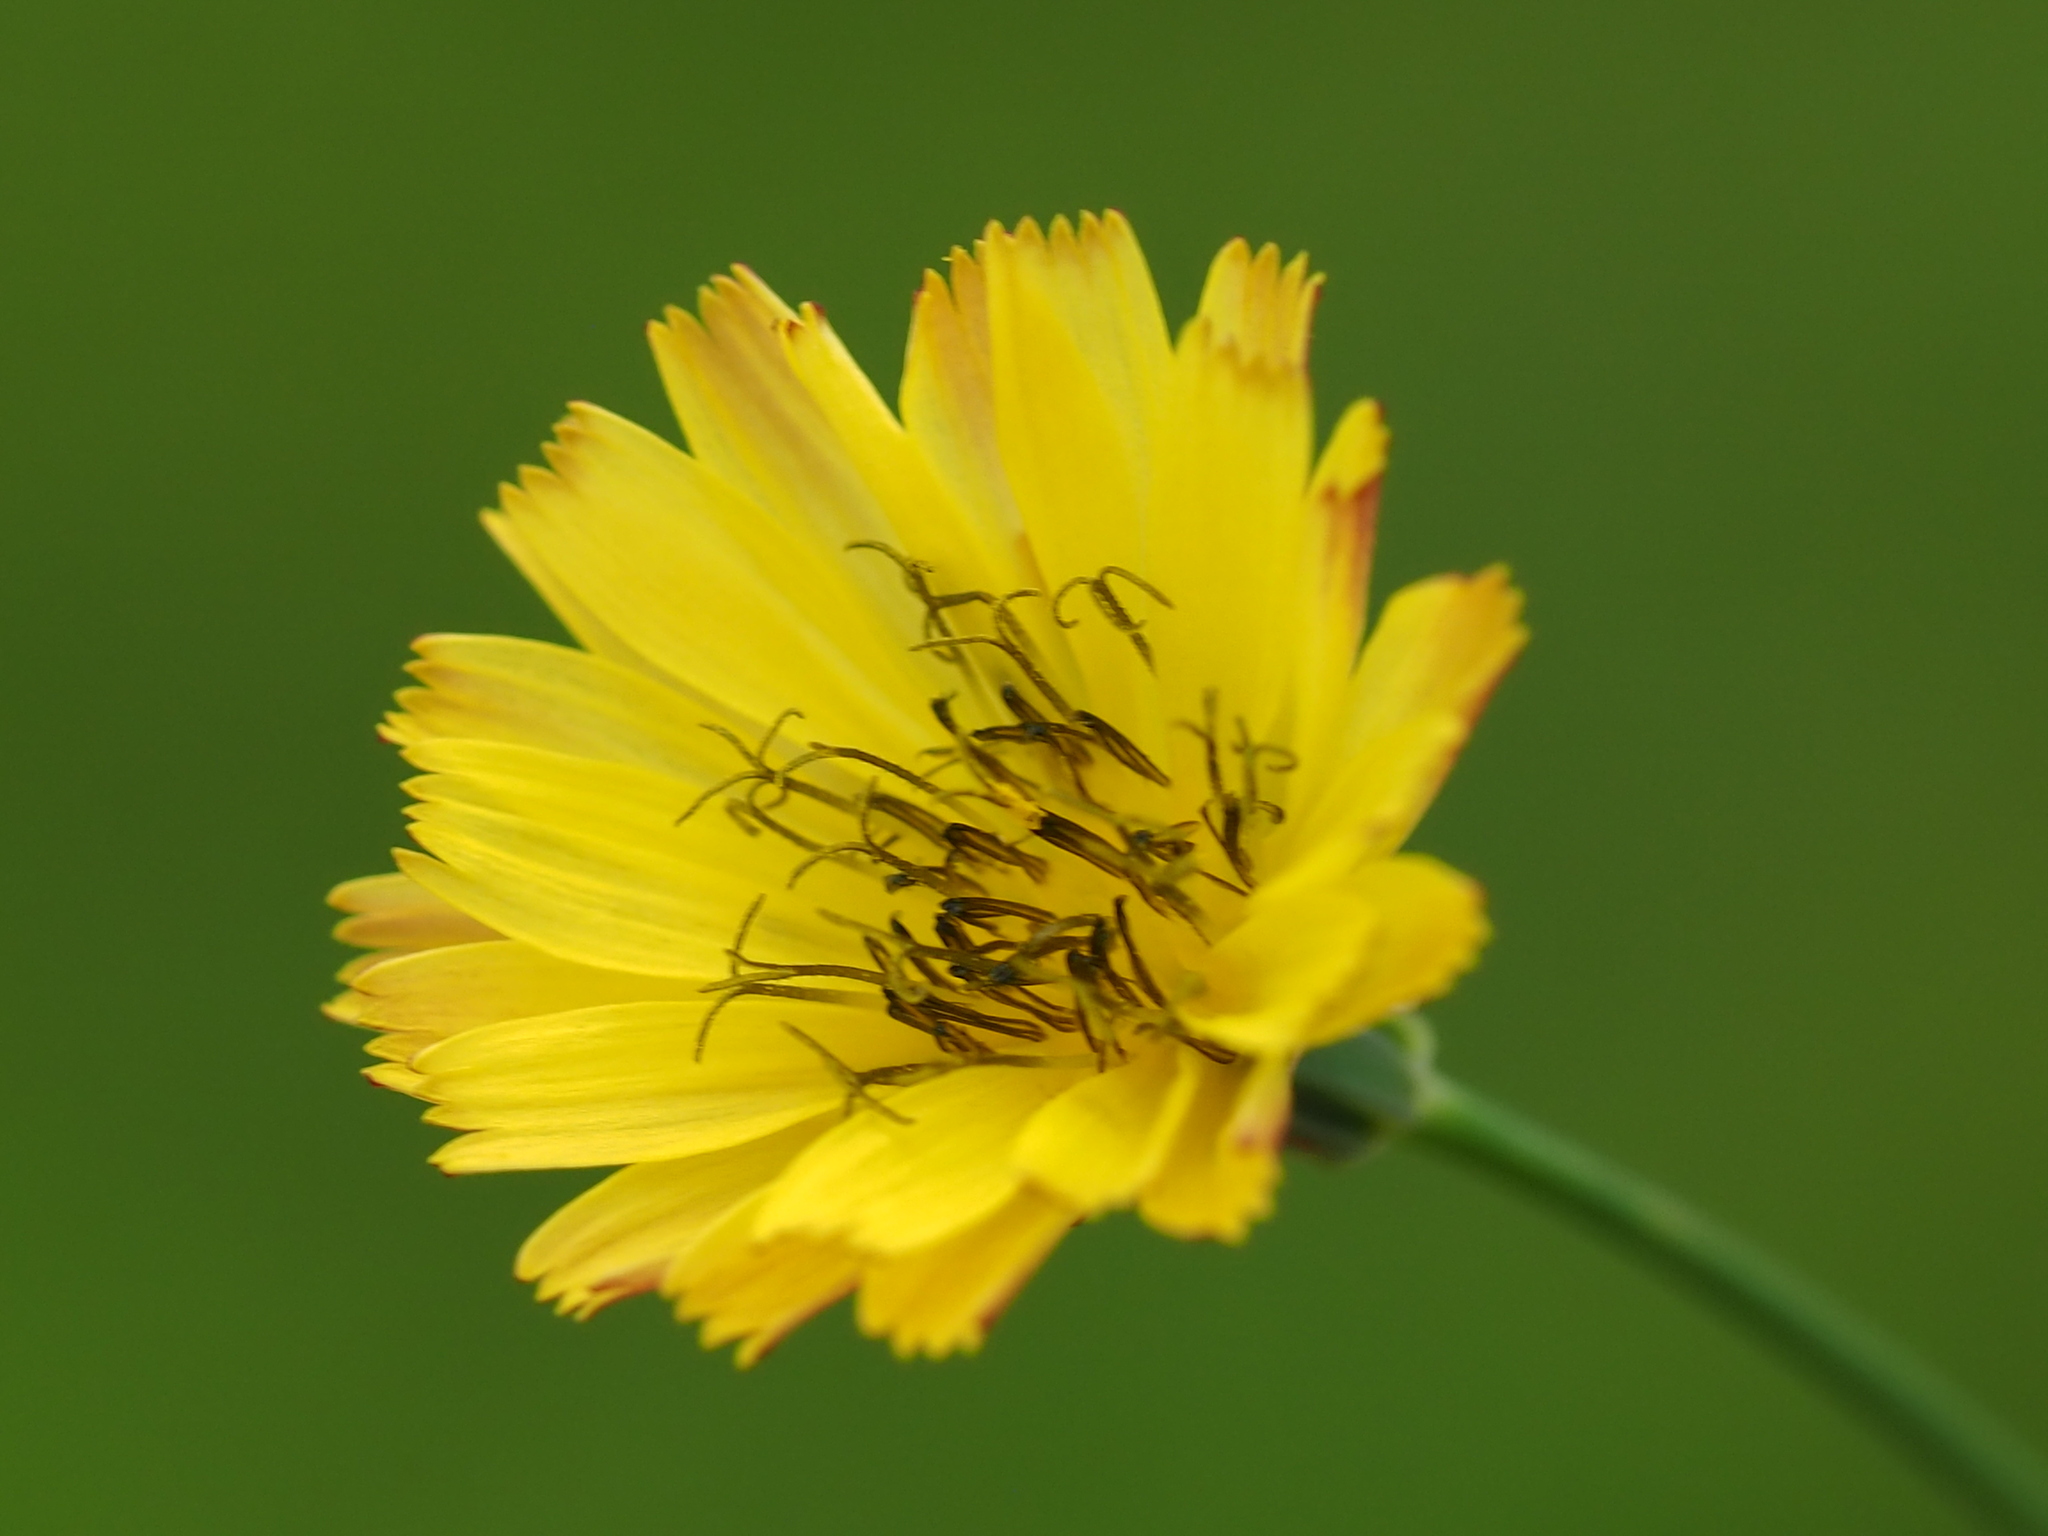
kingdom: Plantae
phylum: Tracheophyta
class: Magnoliopsida
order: Asterales
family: Asteraceae
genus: Ixeris
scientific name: Ixeris chinensis
